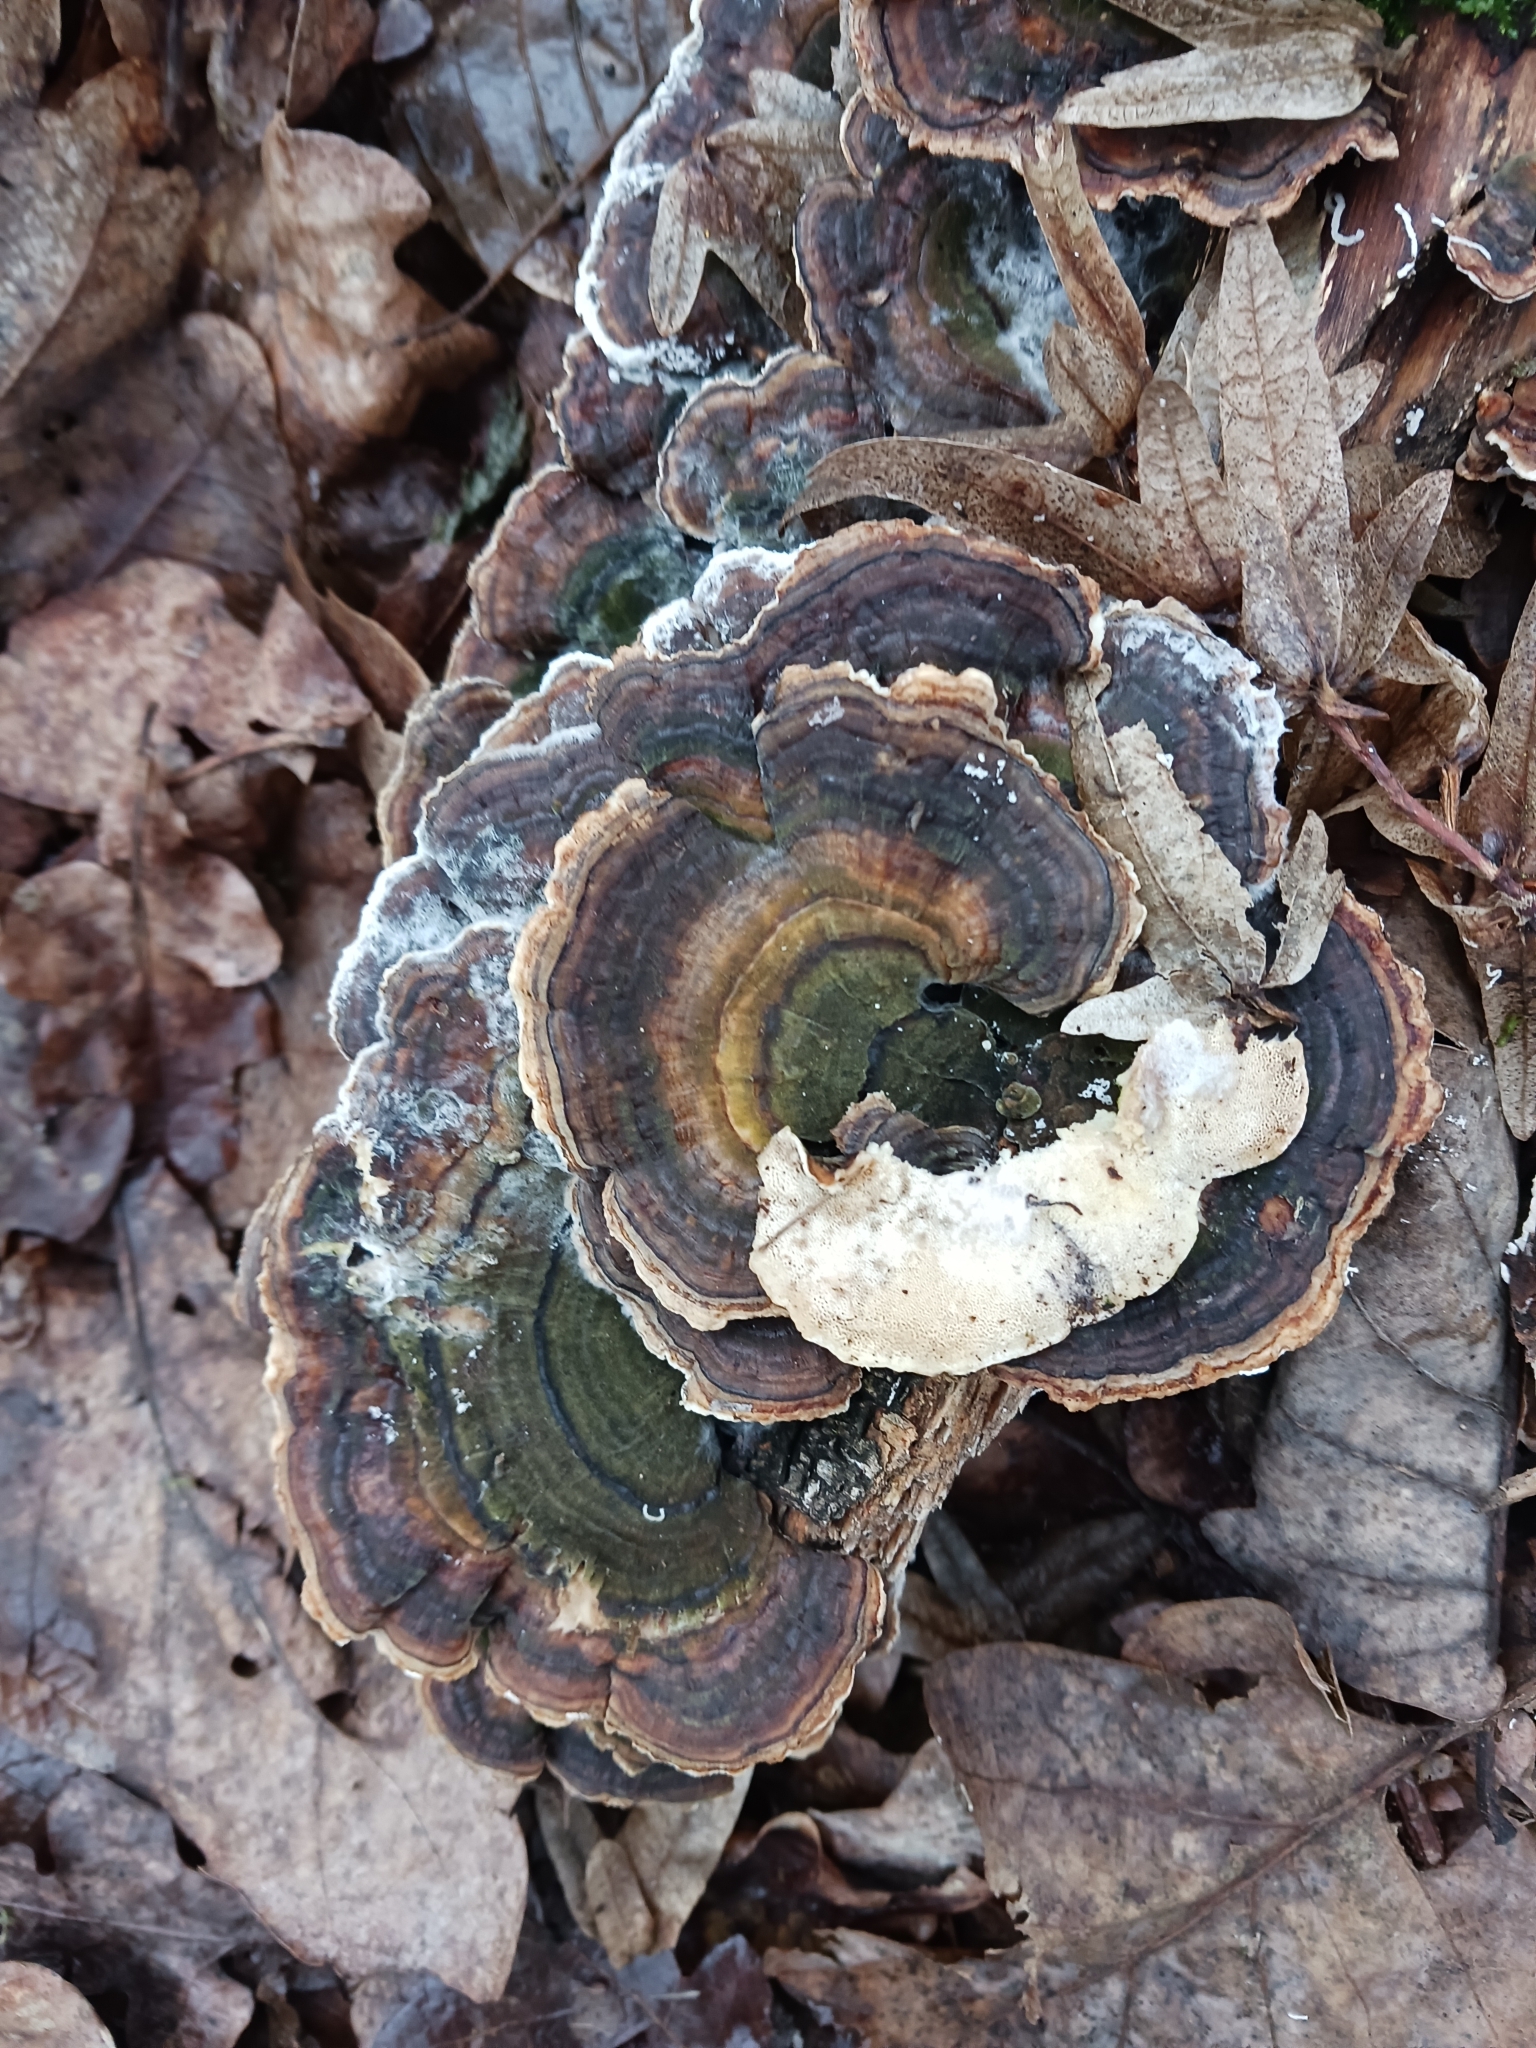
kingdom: Fungi
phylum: Basidiomycota
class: Agaricomycetes
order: Polyporales
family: Polyporaceae
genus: Trametes
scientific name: Trametes versicolor
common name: Turkeytail
